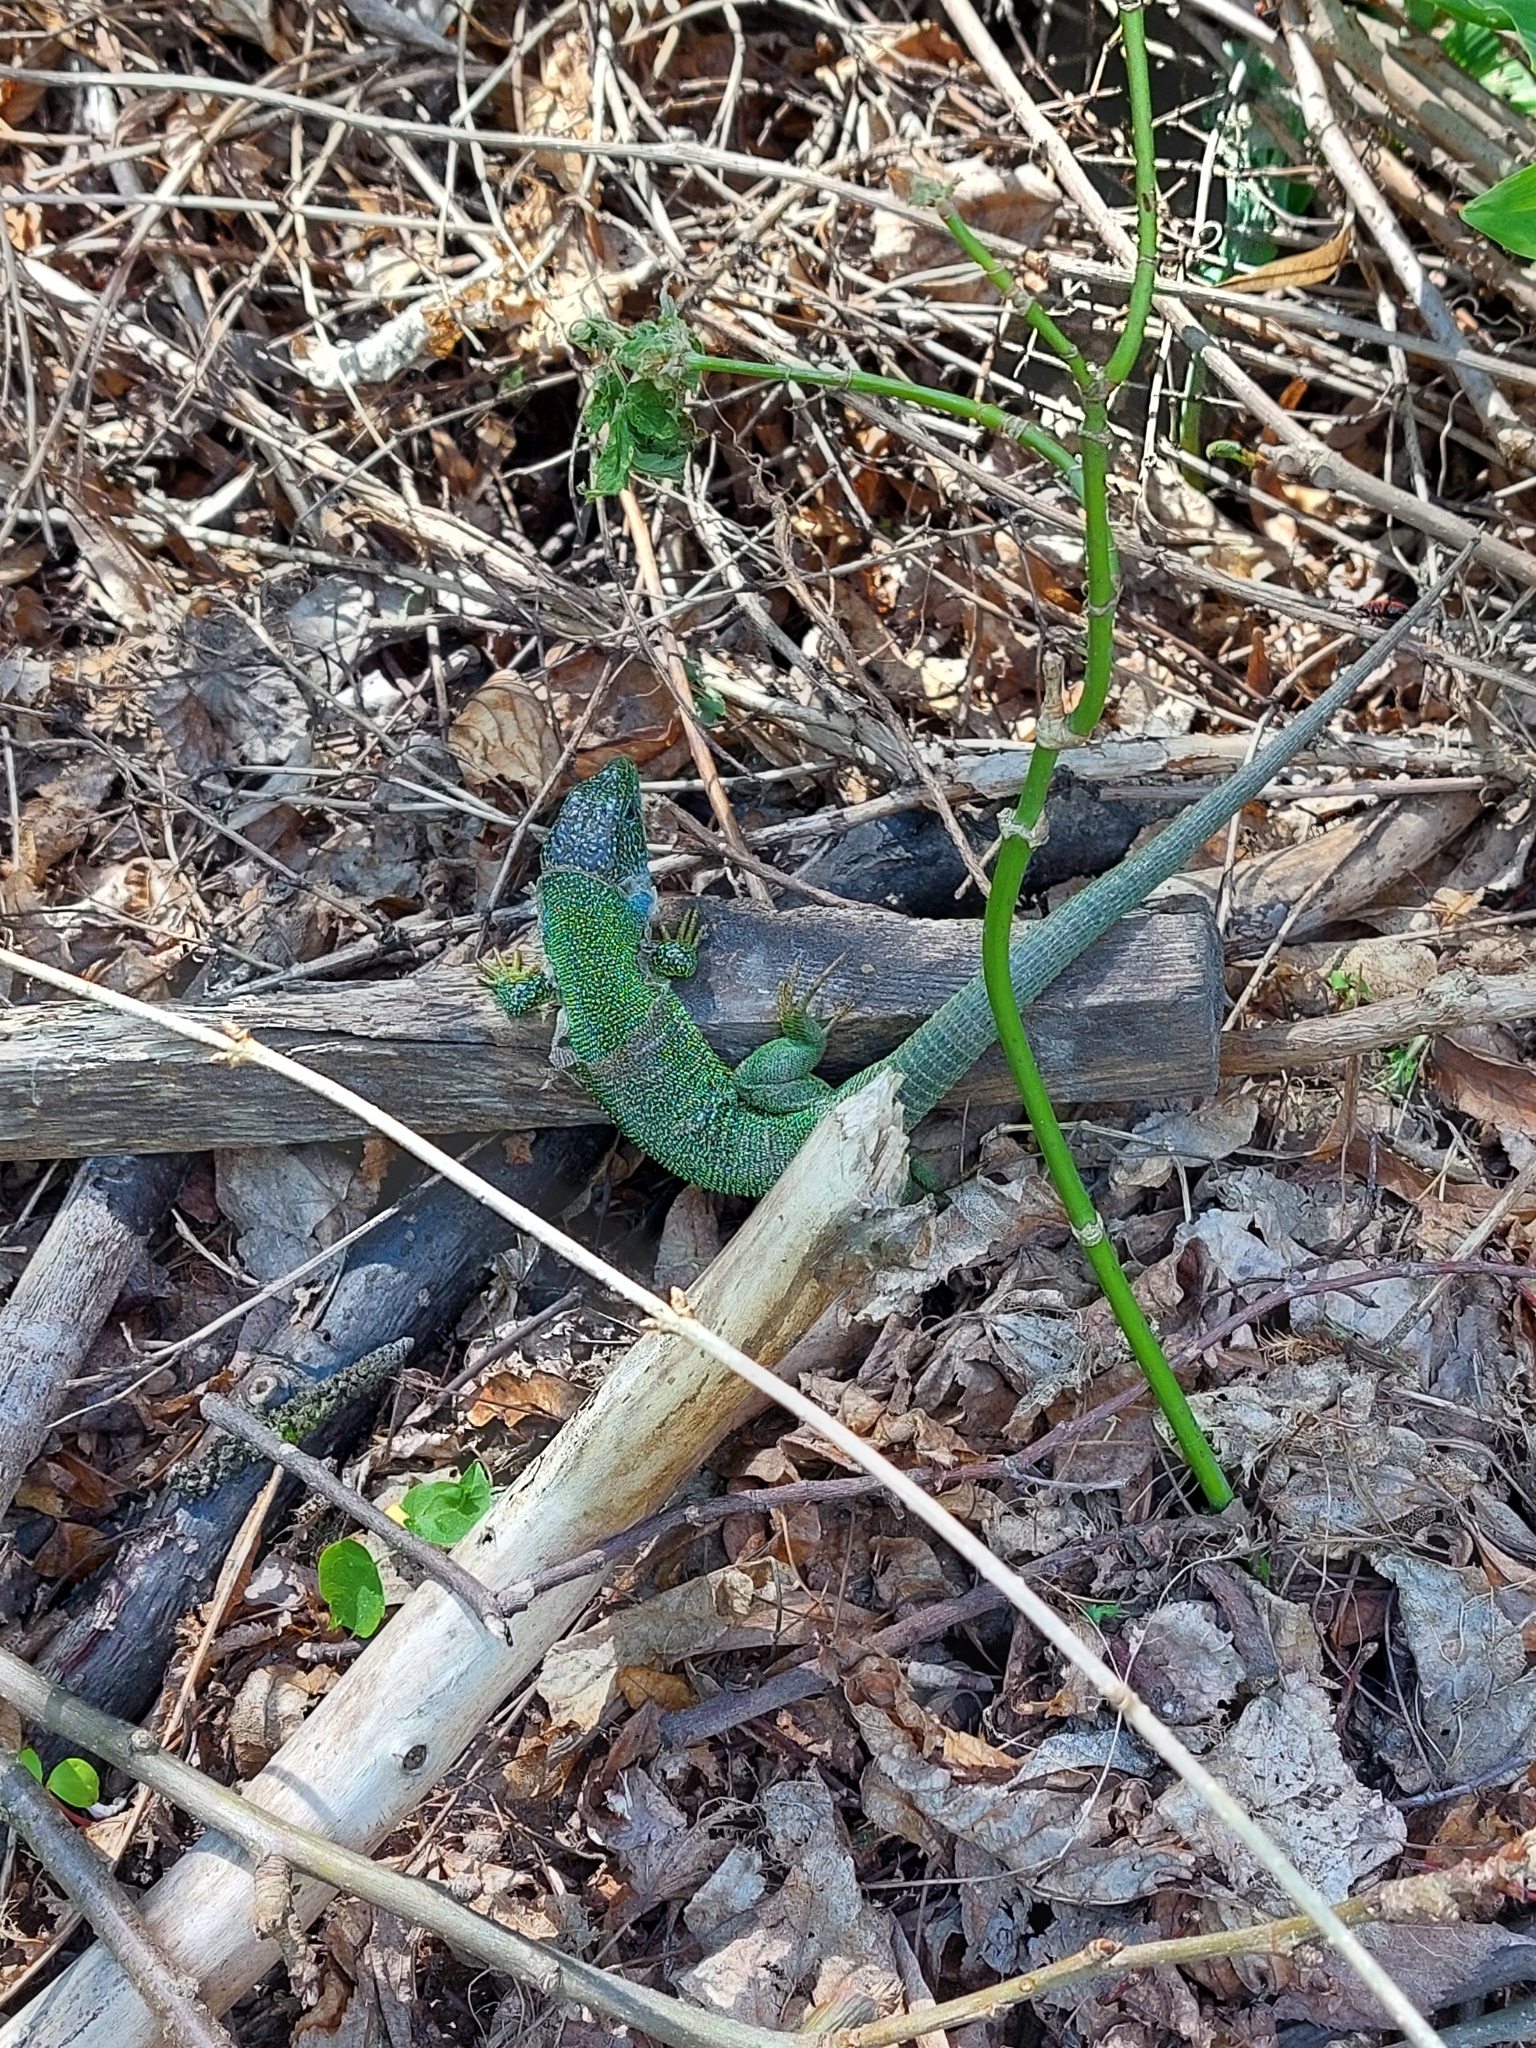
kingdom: Animalia
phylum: Chordata
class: Squamata
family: Lacertidae
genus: Lacerta
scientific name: Lacerta viridis
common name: European green lizard
